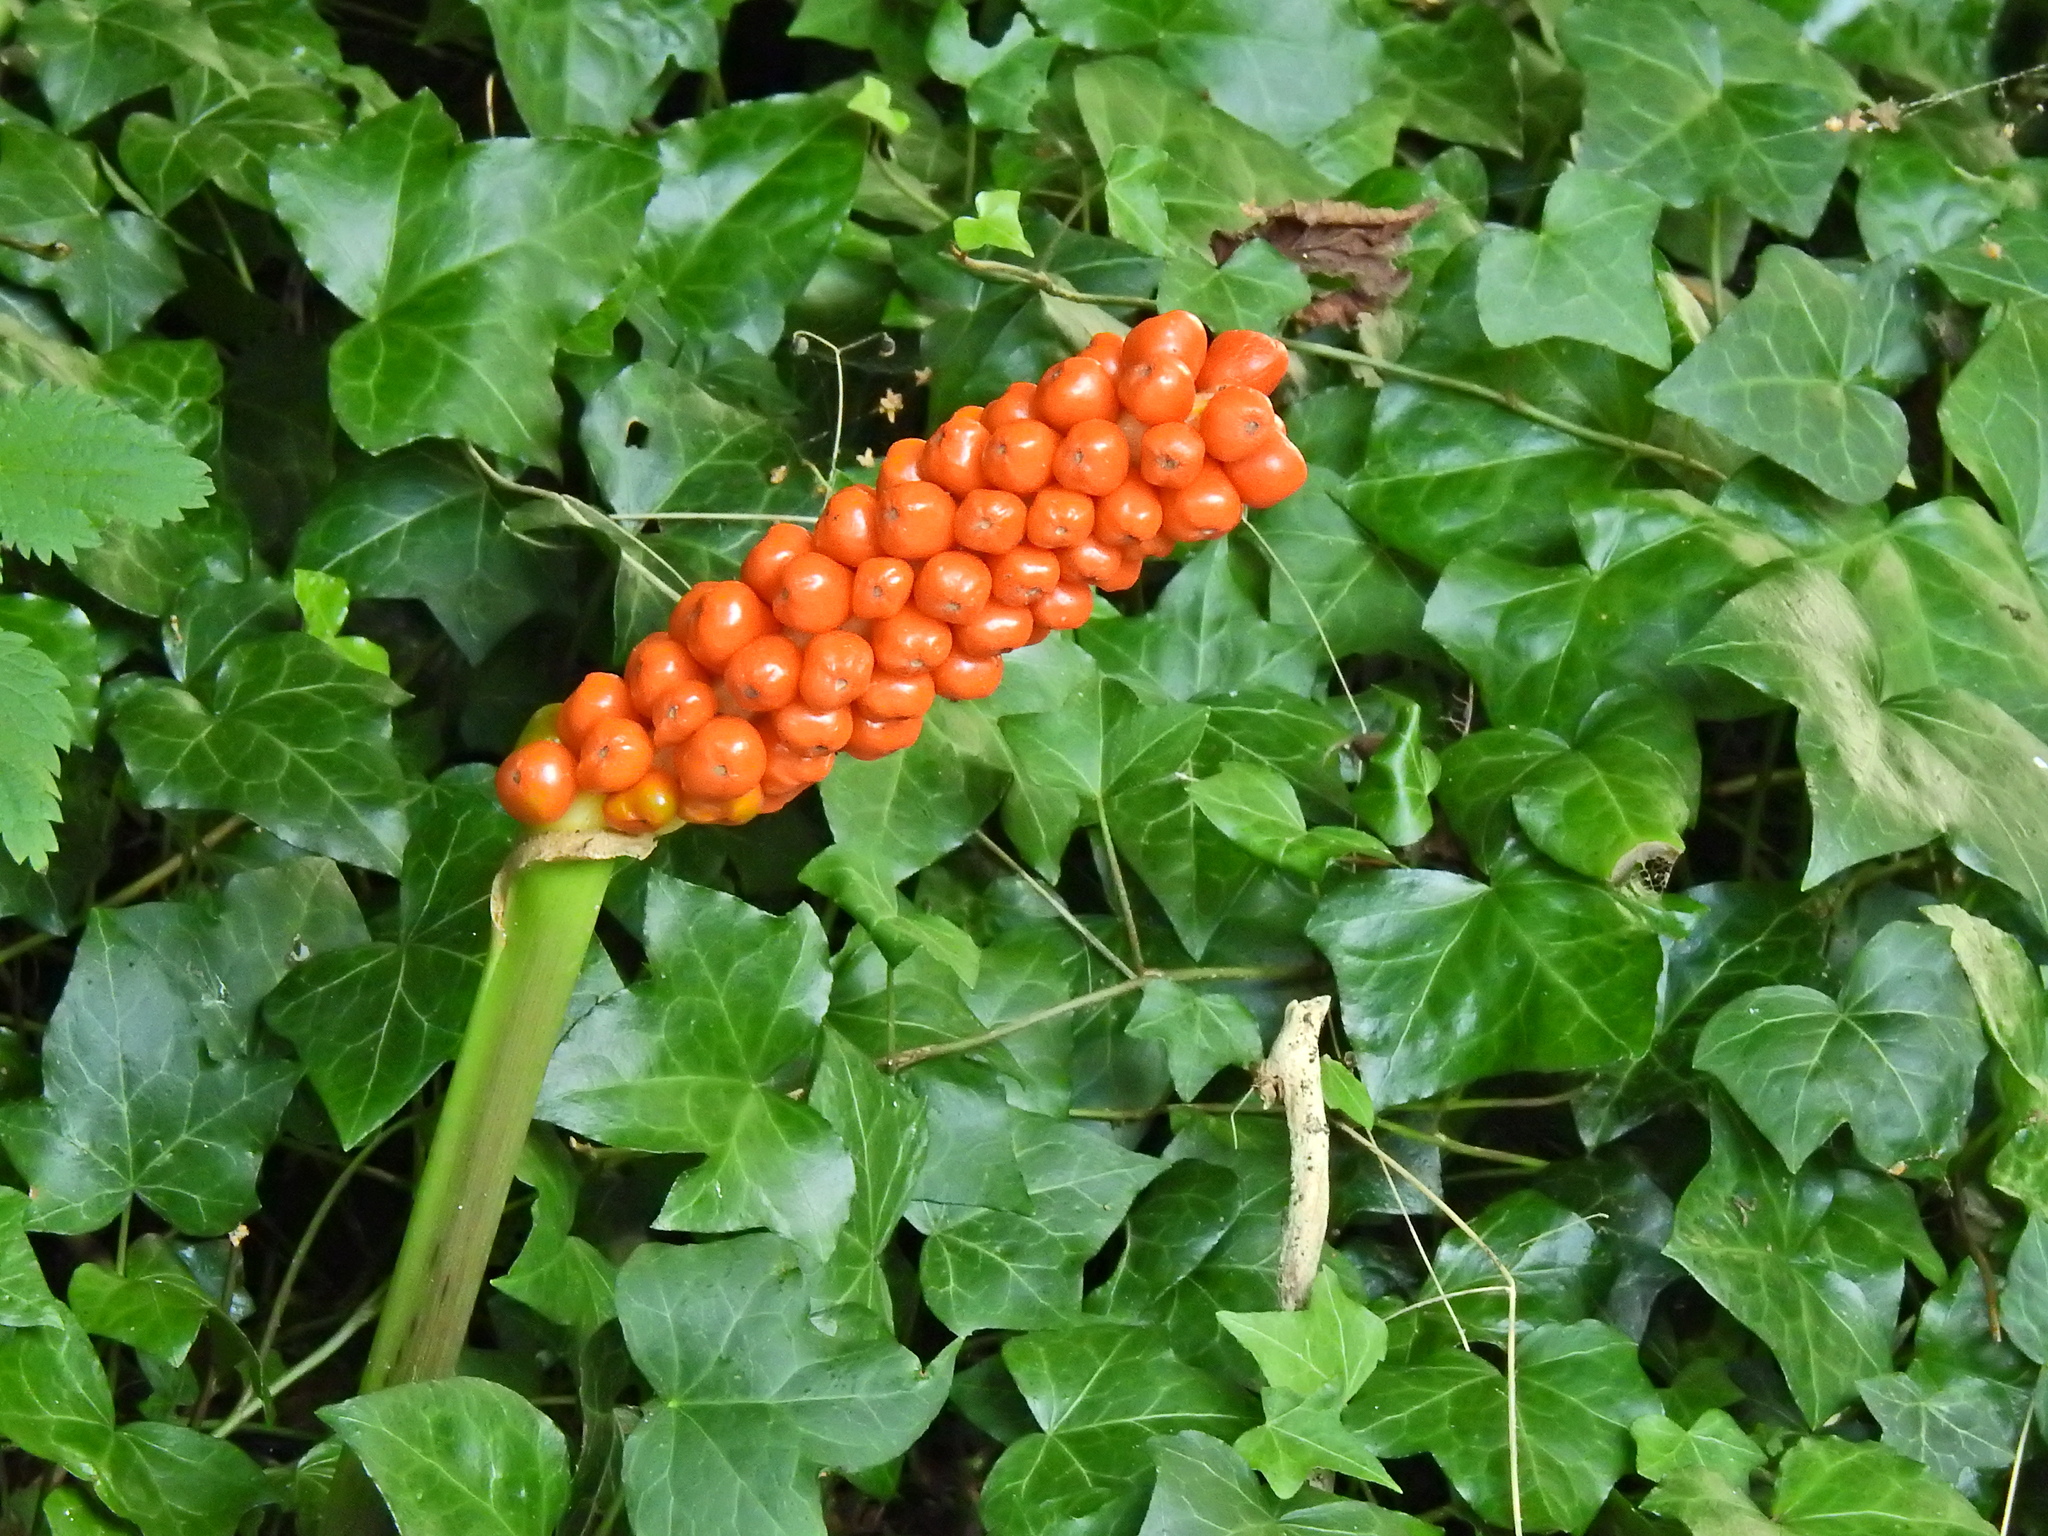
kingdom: Plantae
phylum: Tracheophyta
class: Liliopsida
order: Alismatales
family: Araceae
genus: Arum
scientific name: Arum maculatum
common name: Lords-and-ladies
